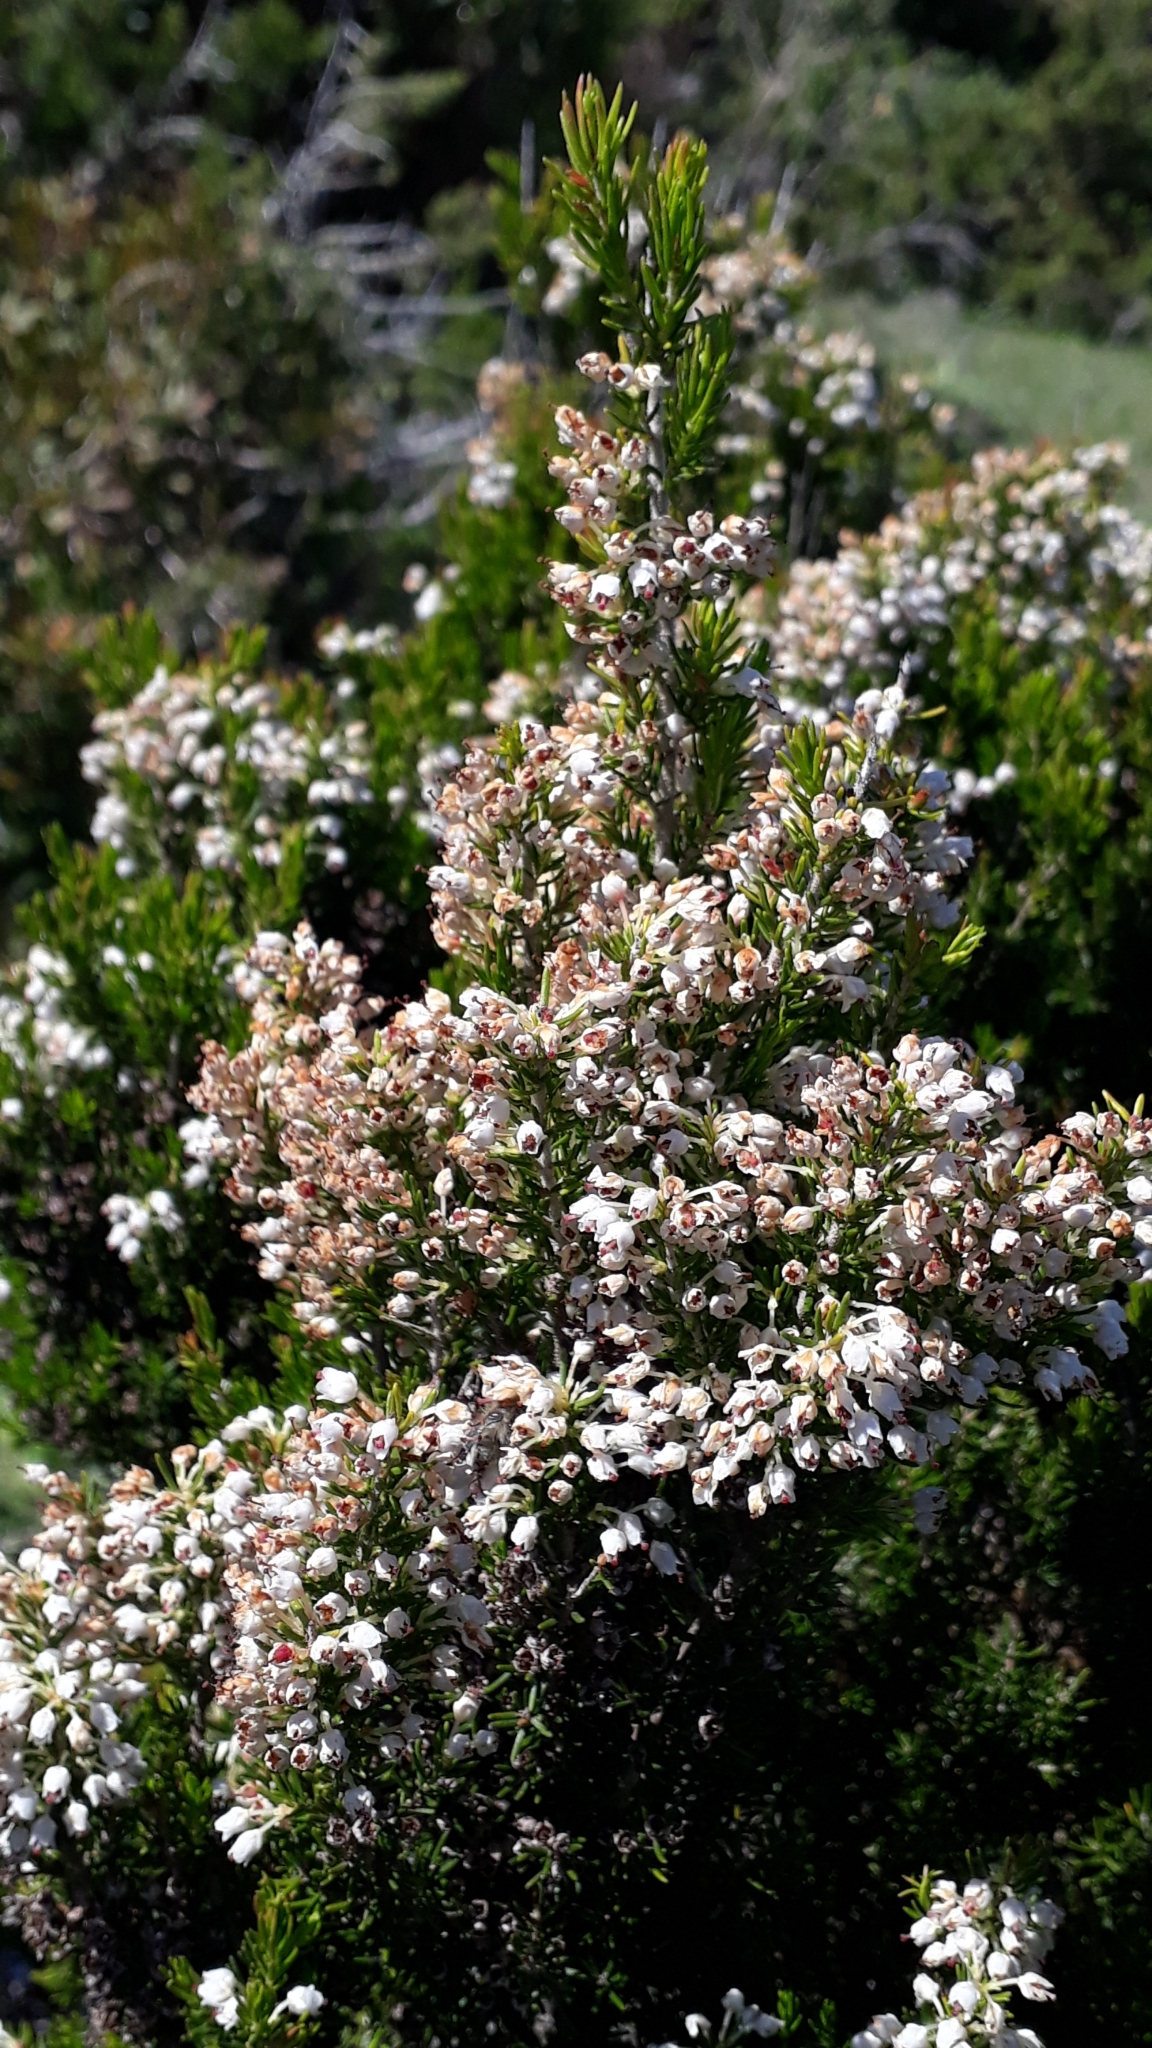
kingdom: Plantae
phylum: Tracheophyta
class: Magnoliopsida
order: Ericales
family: Ericaceae
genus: Erica
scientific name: Erica arborea
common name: Tree heath
